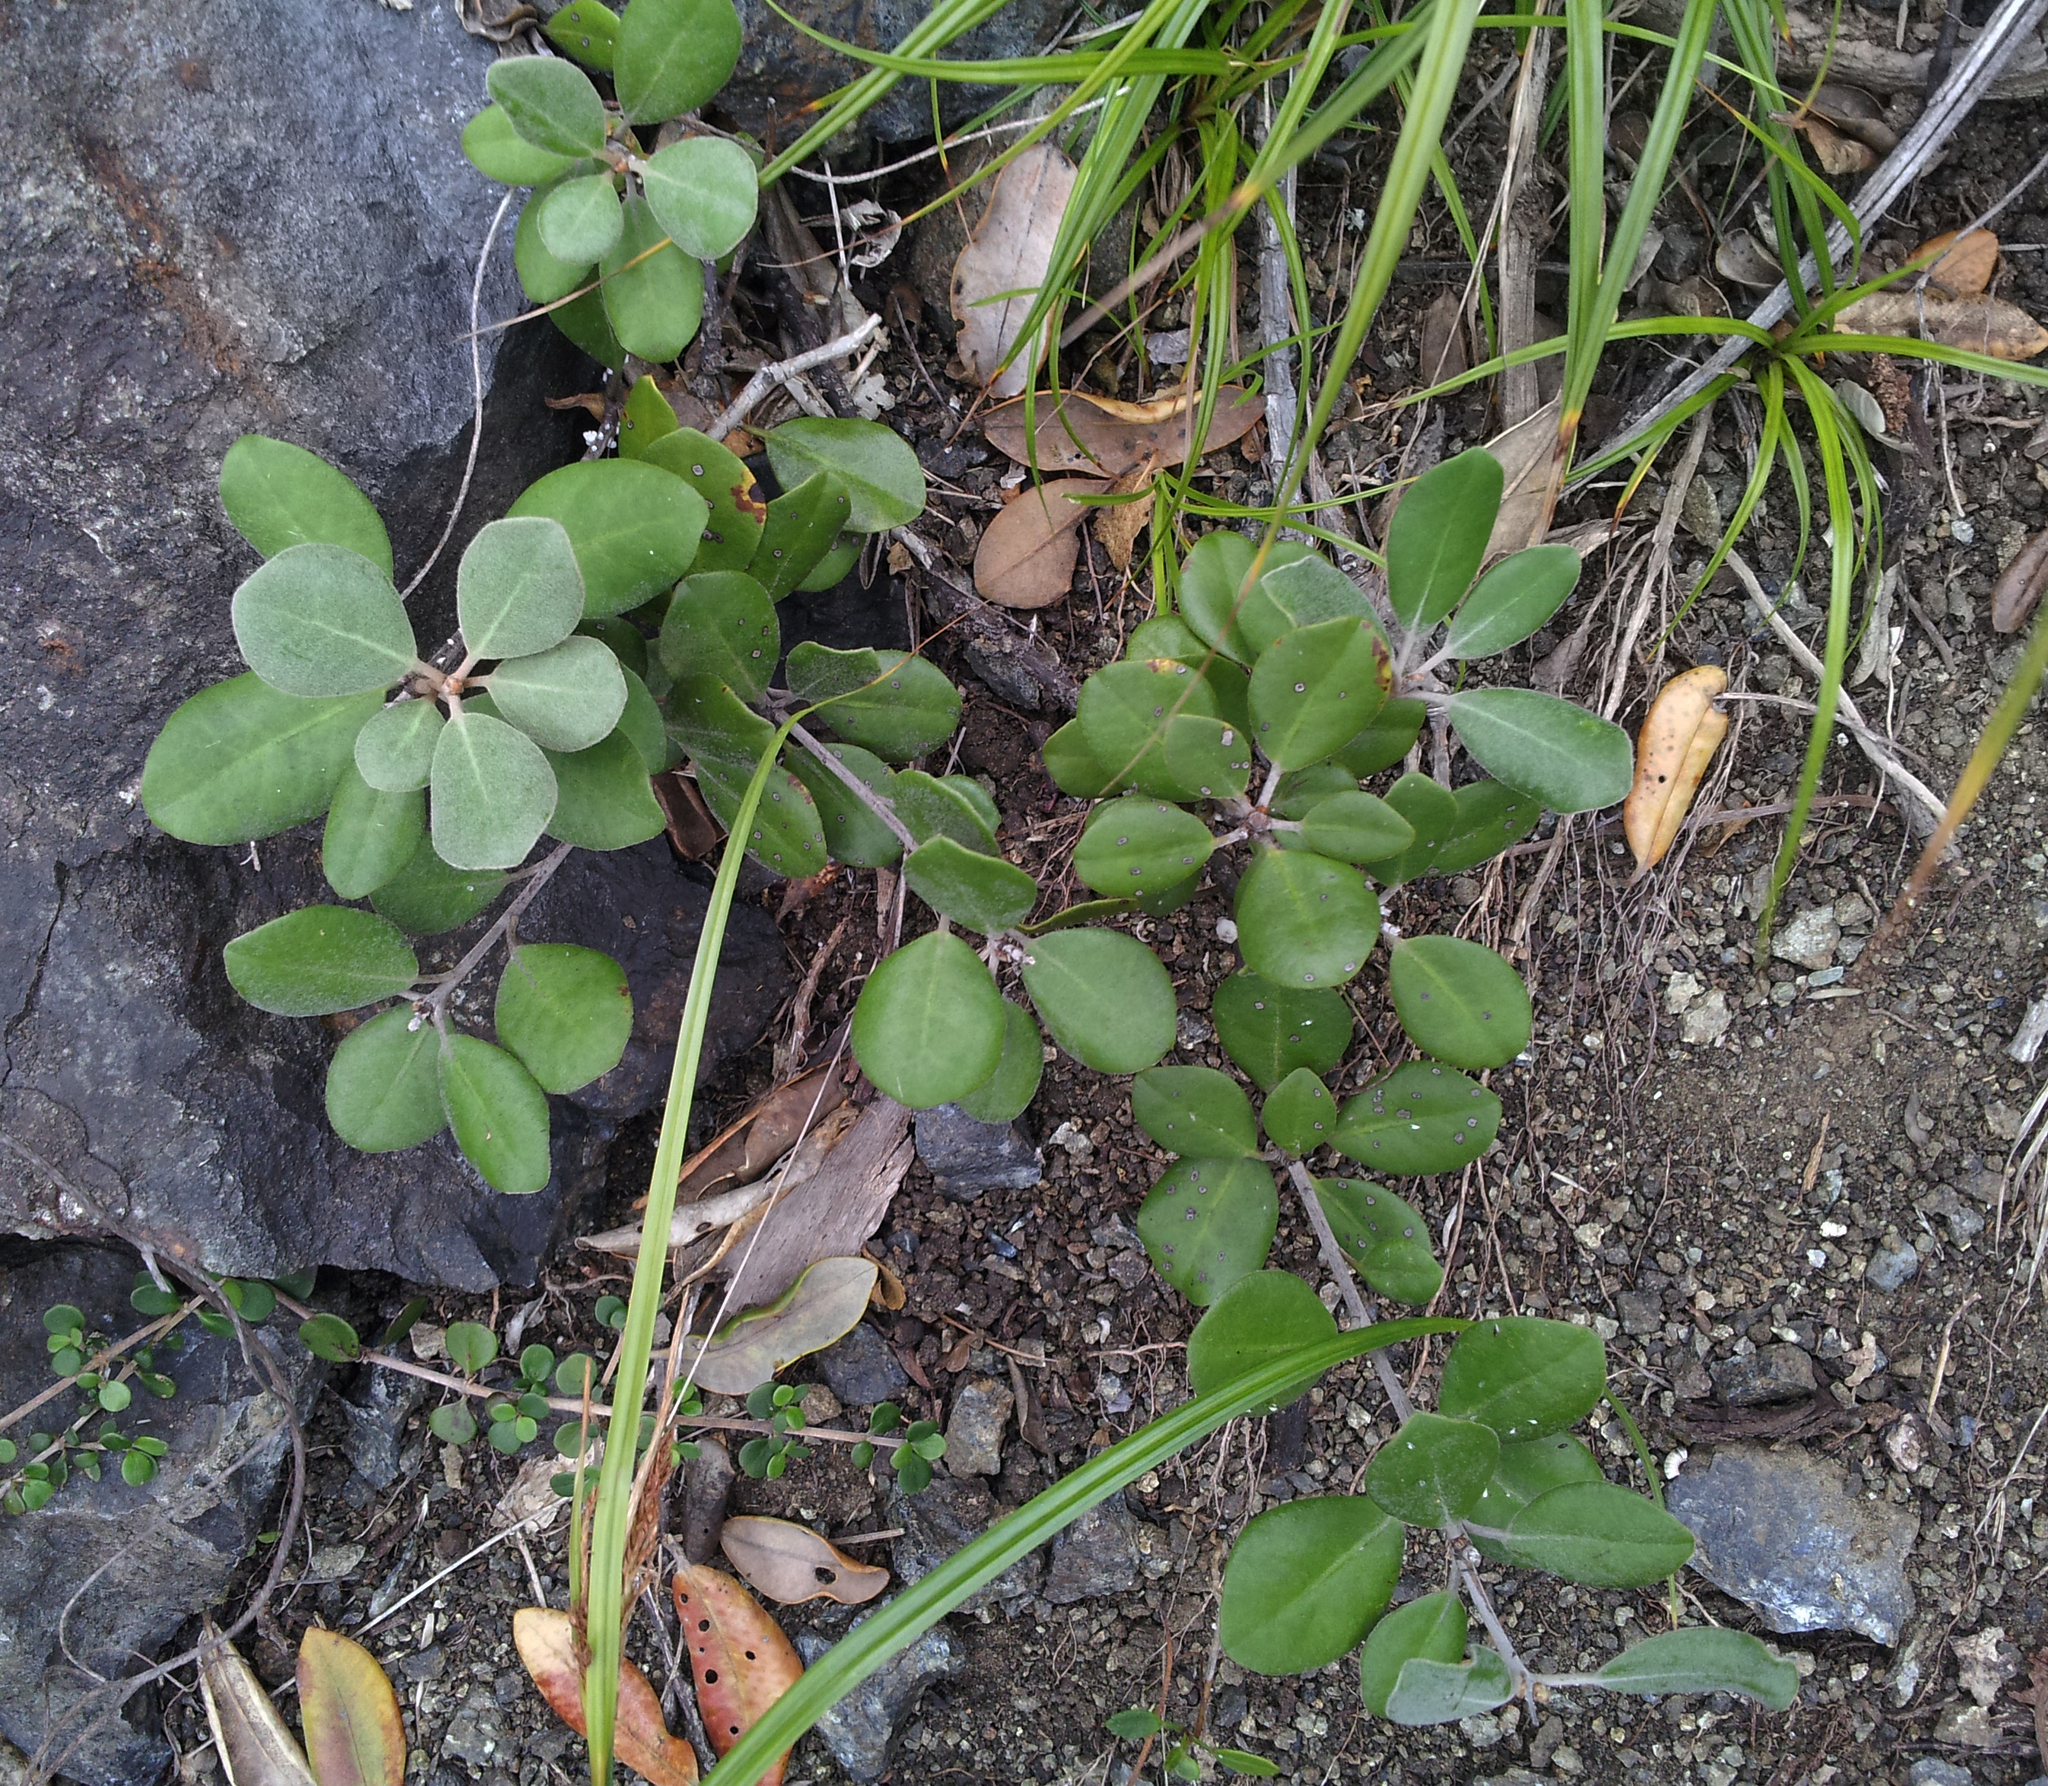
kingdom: Plantae
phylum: Tracheophyta
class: Magnoliopsida
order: Apiales
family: Pittosporaceae
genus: Pittosporum
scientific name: Pittosporum serpentinum
